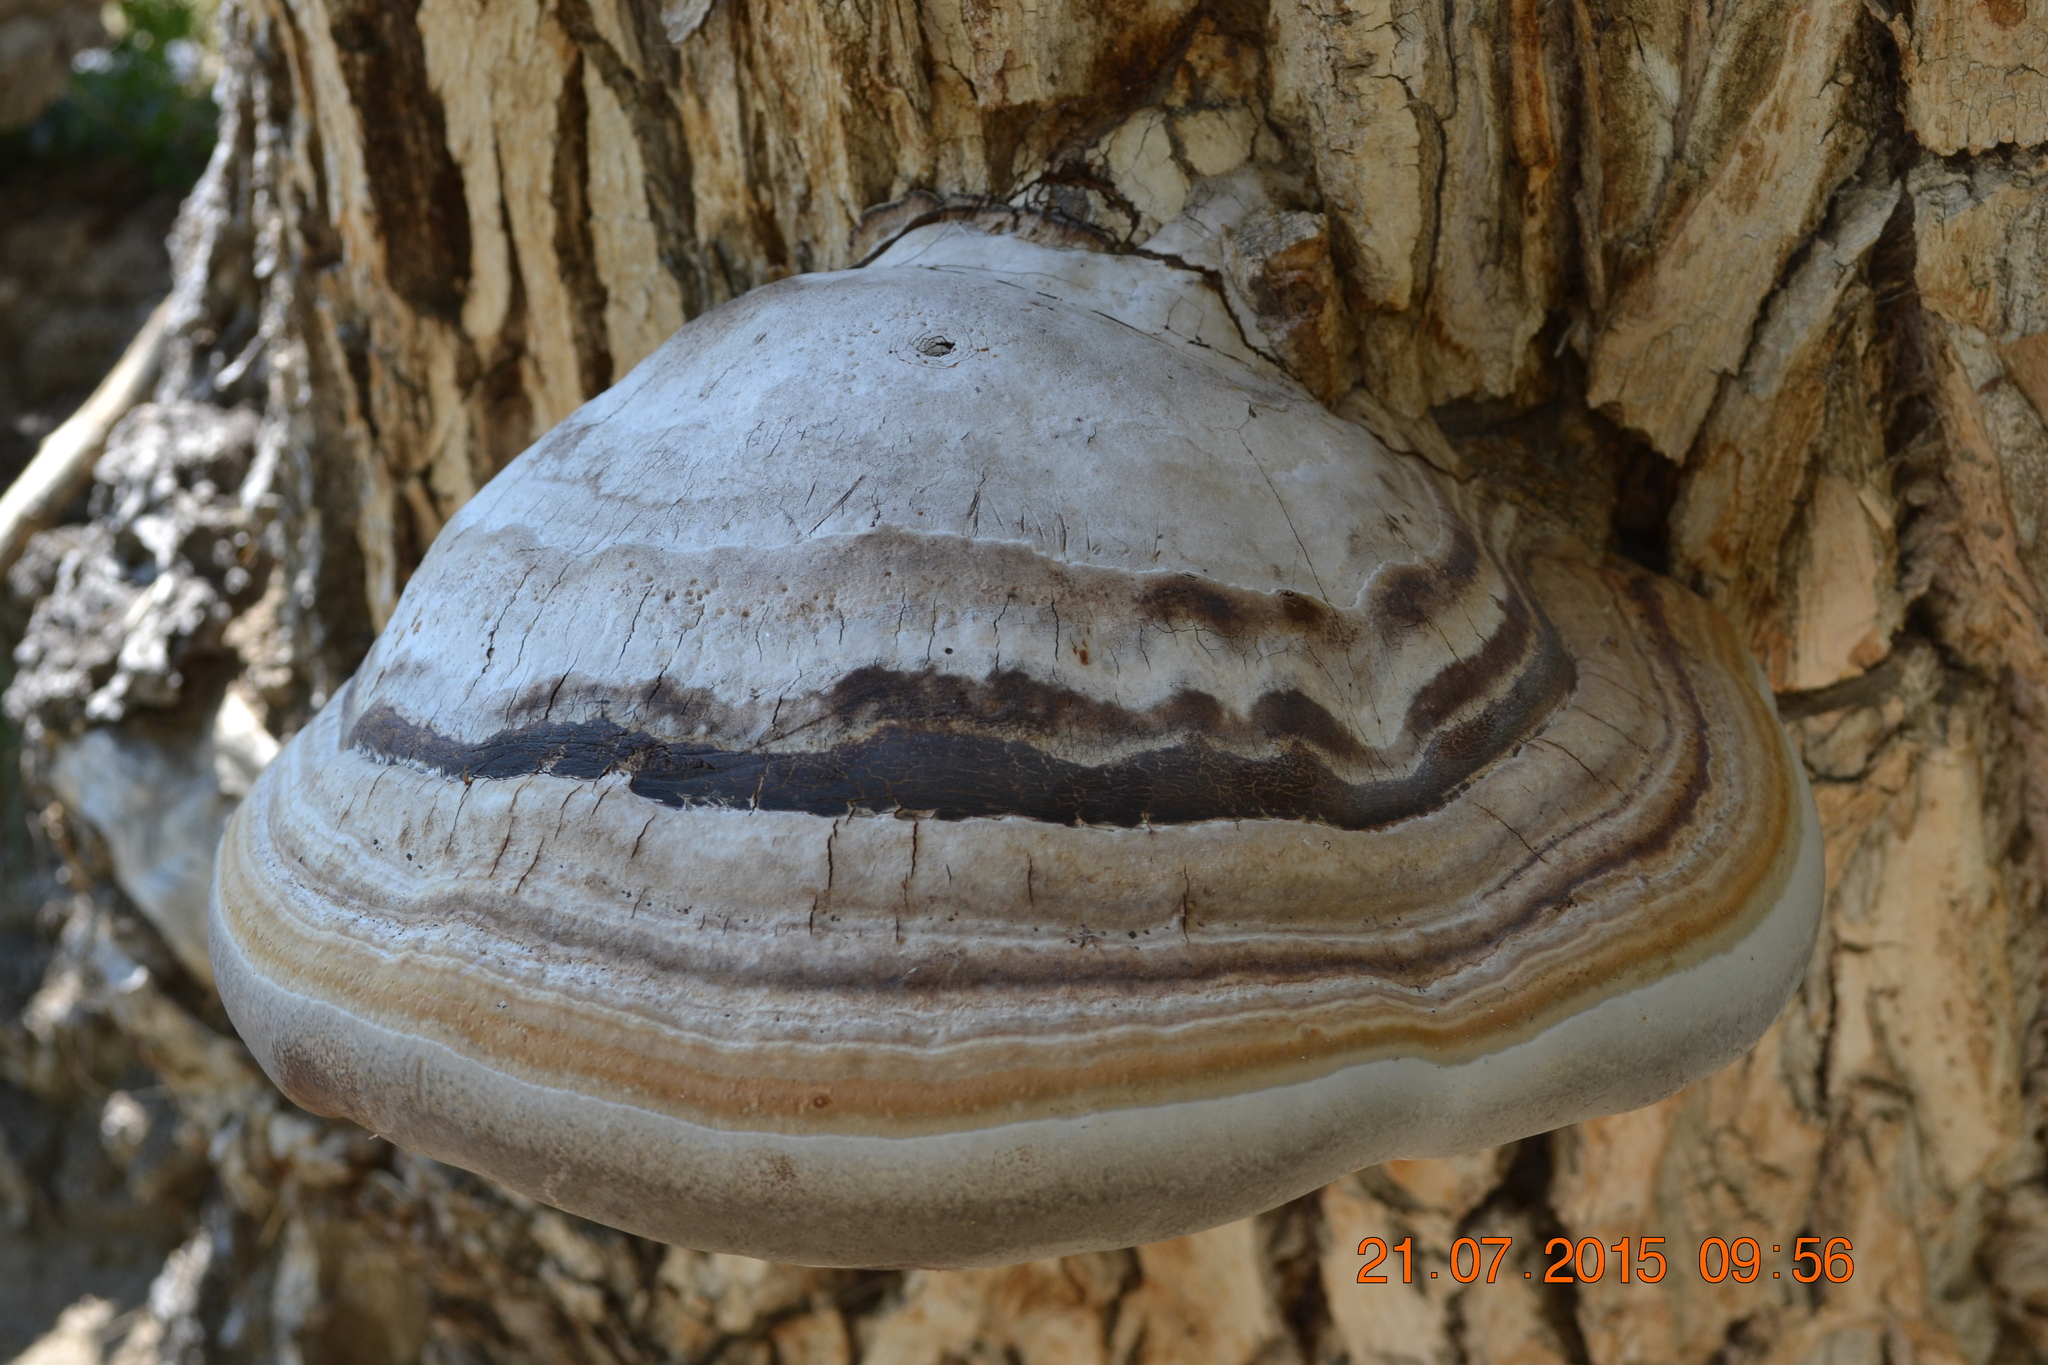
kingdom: Fungi
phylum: Basidiomycota
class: Agaricomycetes
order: Polyporales
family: Polyporaceae
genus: Fomes
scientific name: Fomes fomentarius
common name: Hoof fungus
